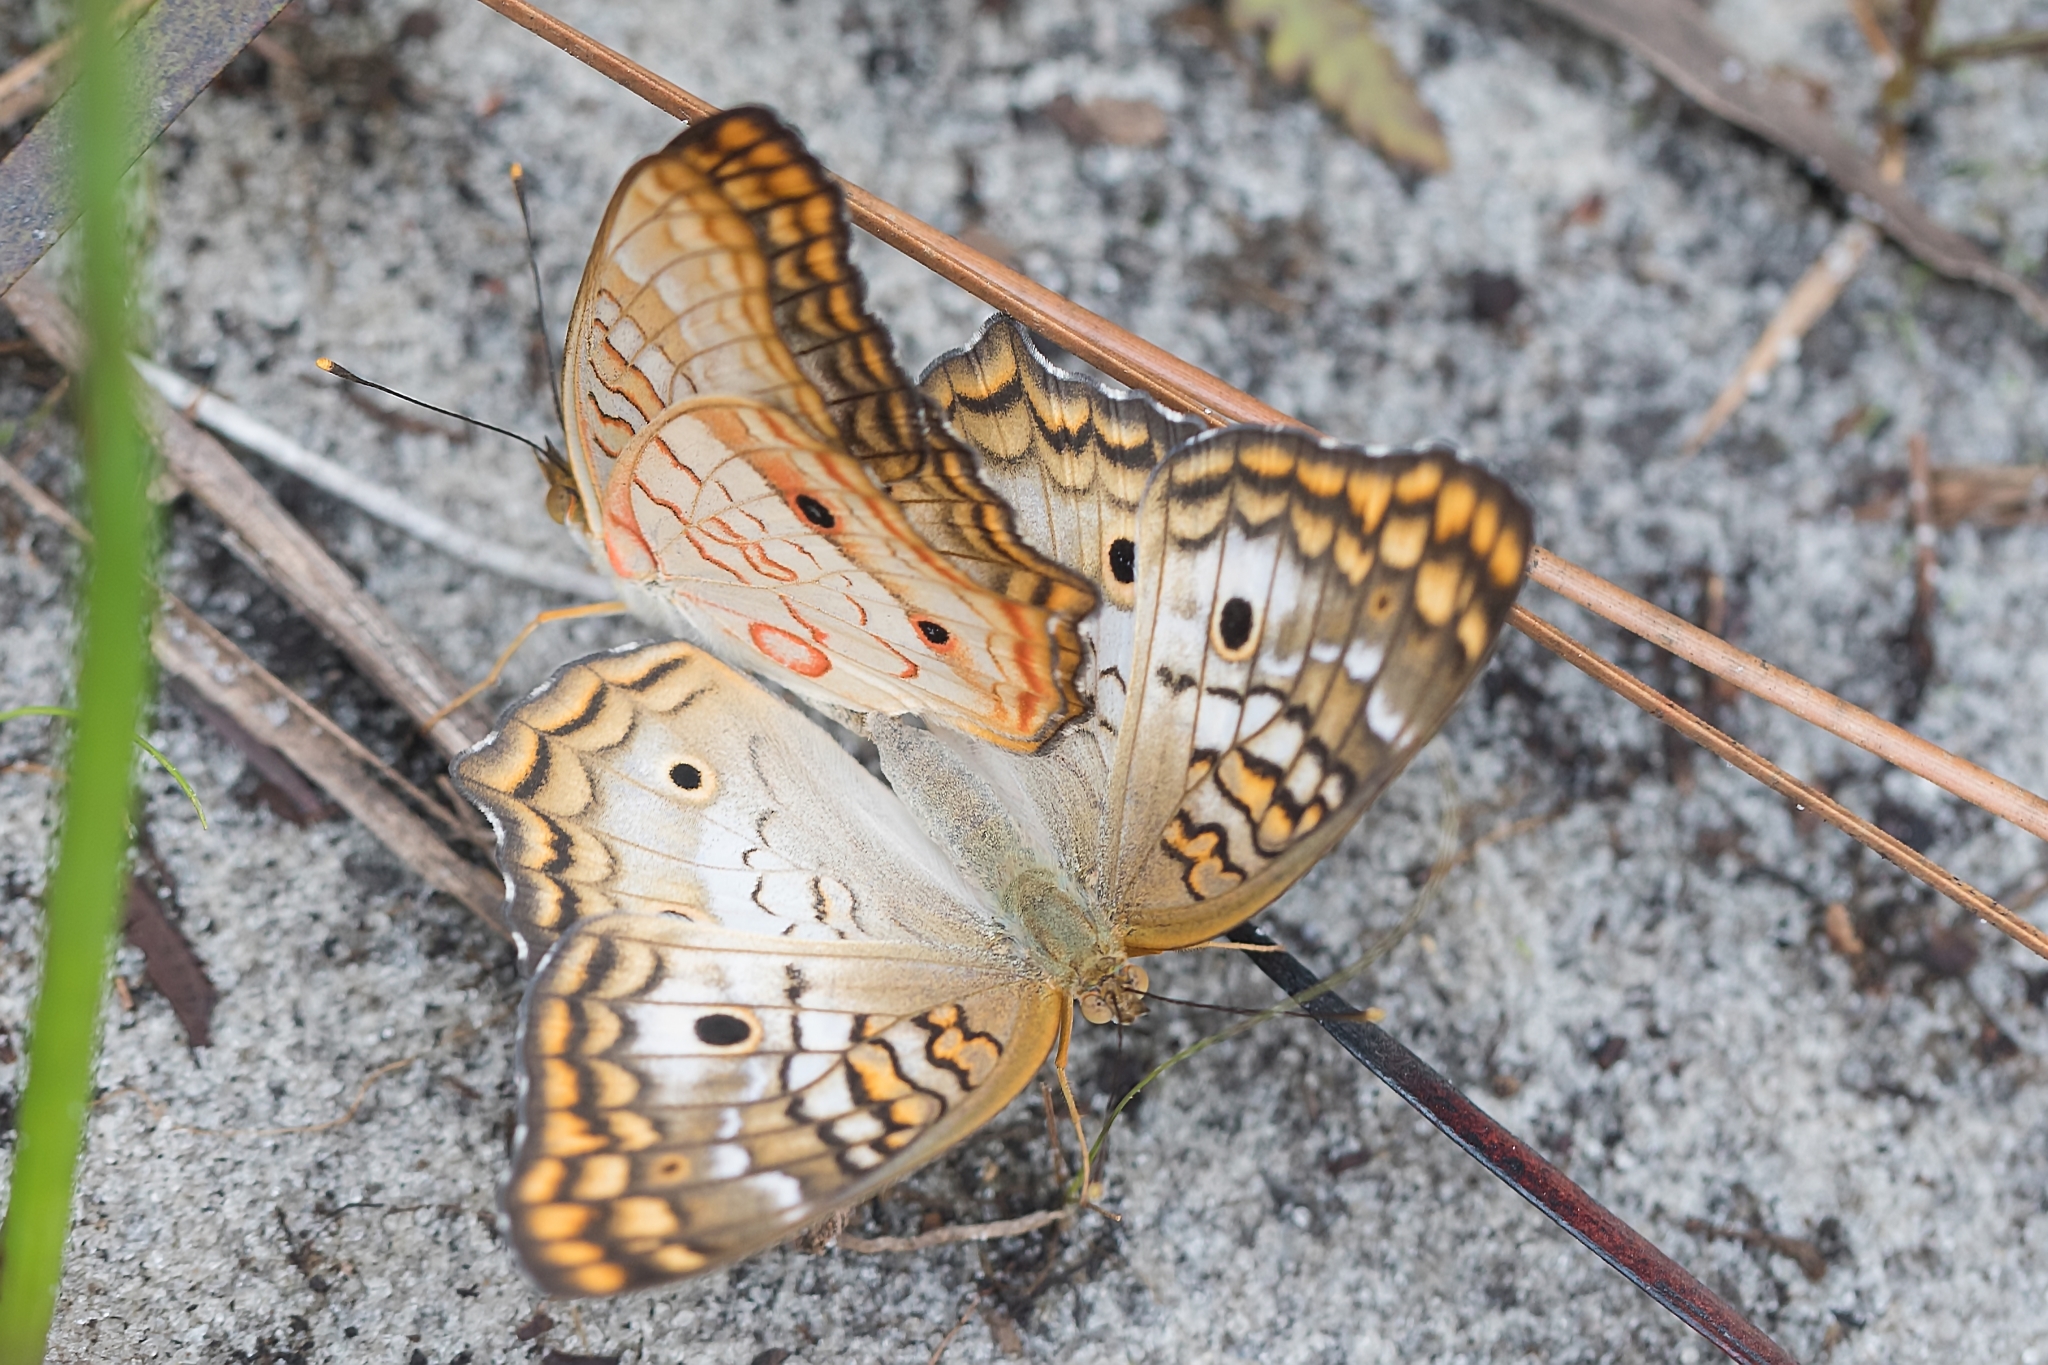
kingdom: Animalia
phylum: Arthropoda
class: Insecta
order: Lepidoptera
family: Nymphalidae
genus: Anartia
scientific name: Anartia jatrophae
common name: White peacock
